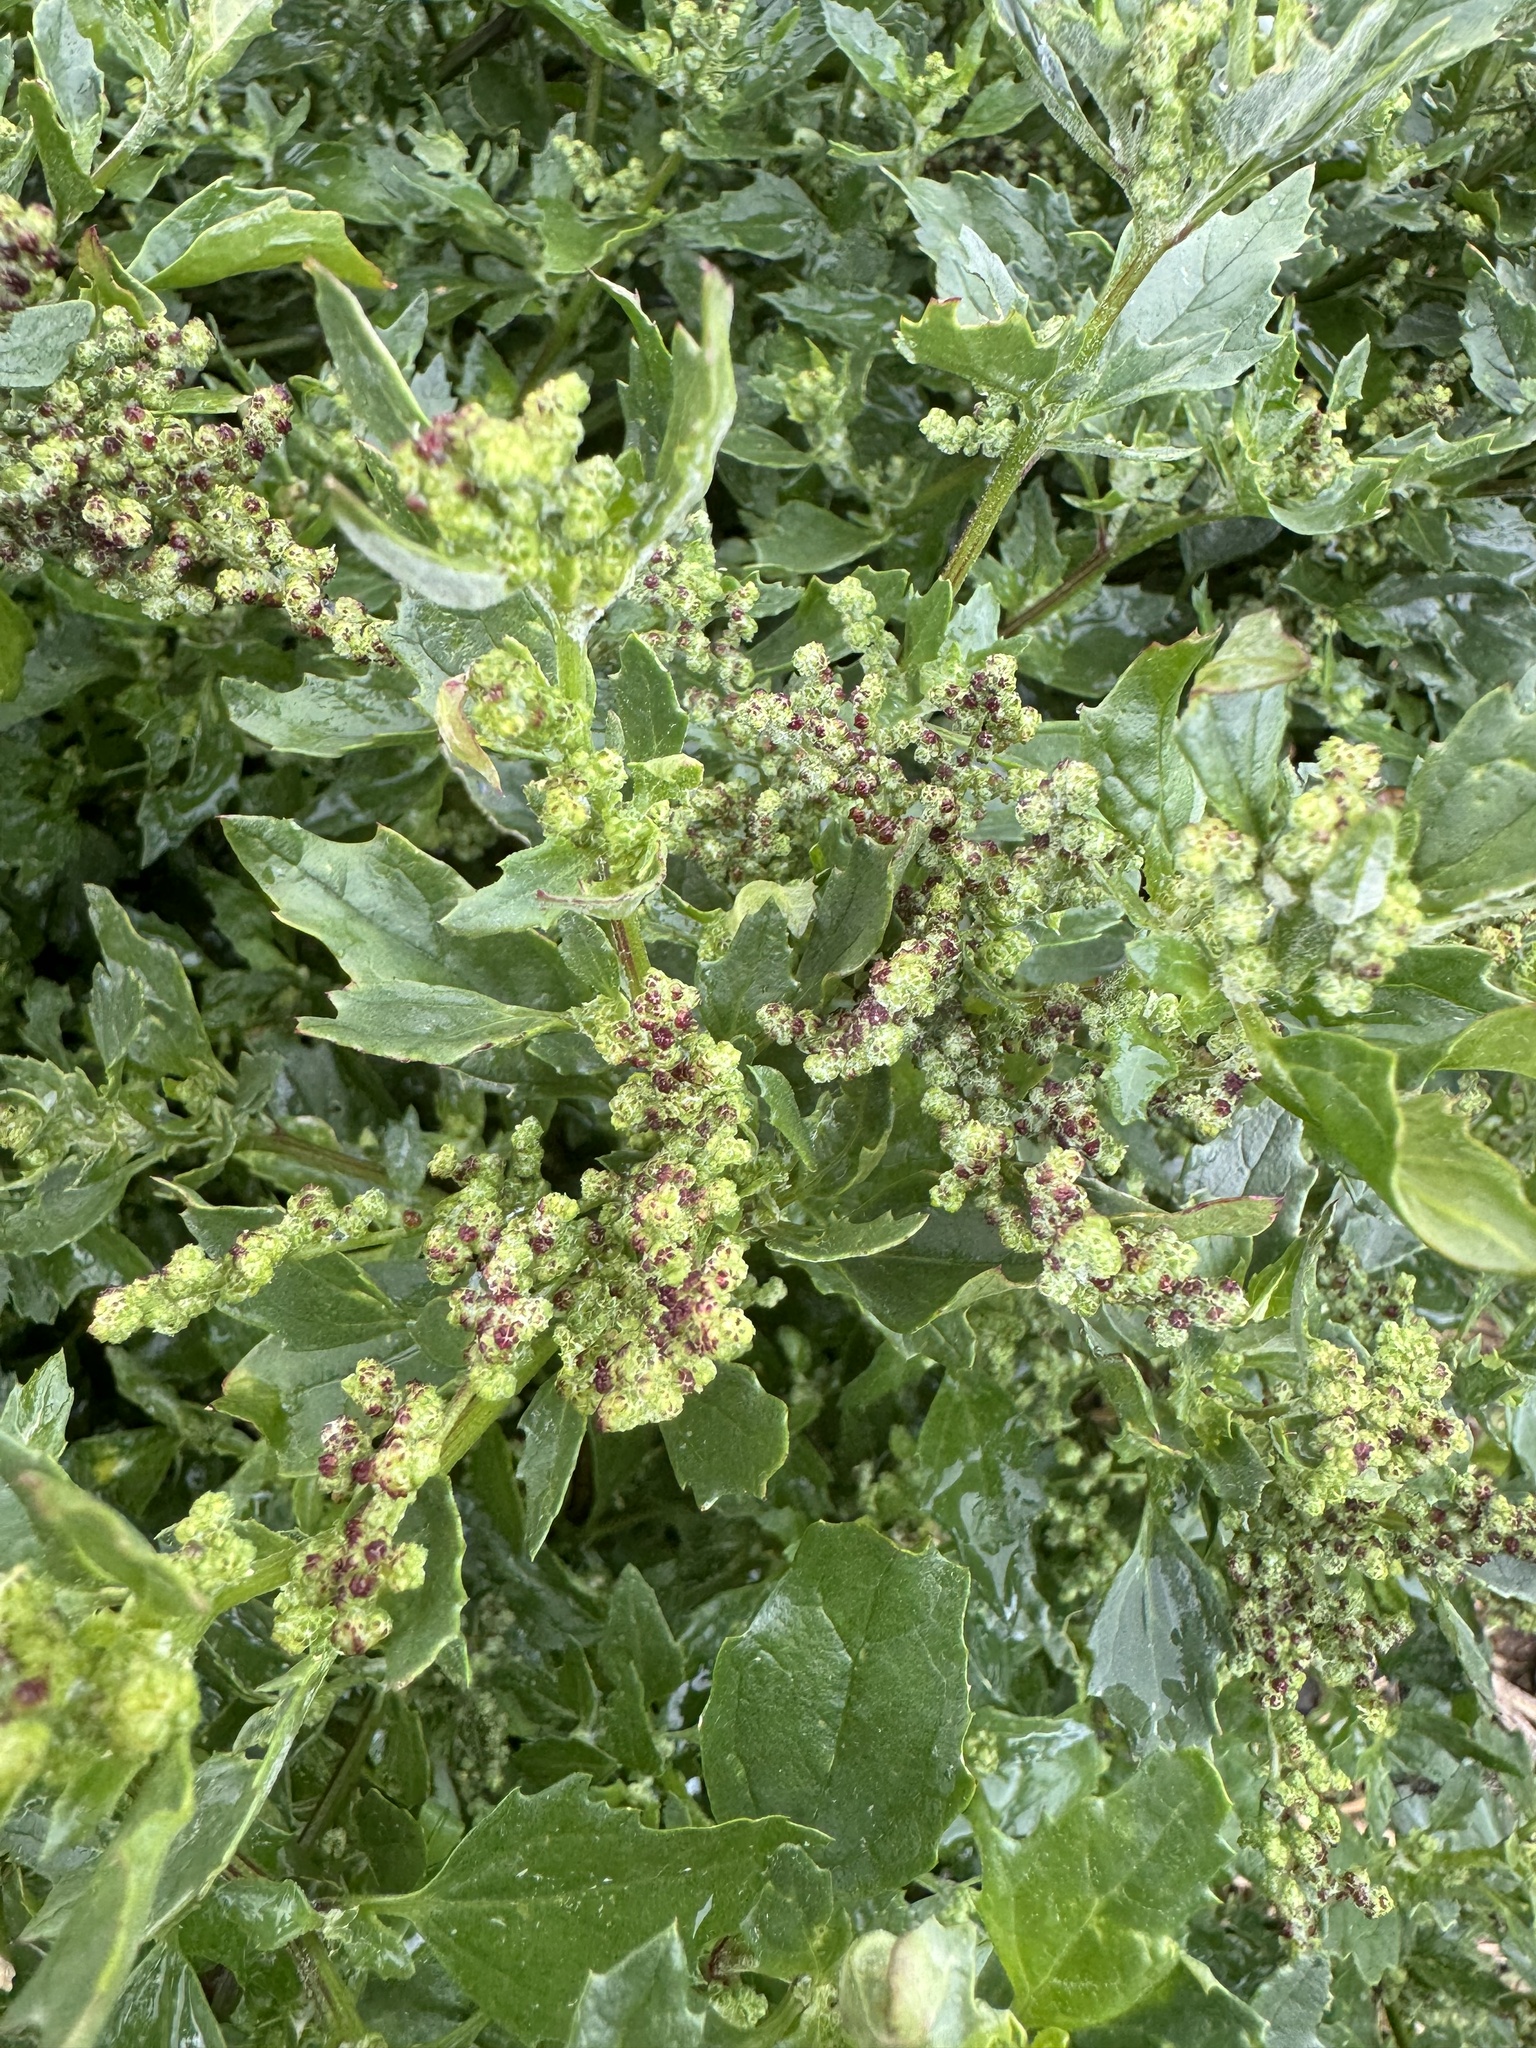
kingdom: Plantae
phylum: Tracheophyta
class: Magnoliopsida
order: Caryophyllales
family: Amaranthaceae
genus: Chenopodiastrum
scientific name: Chenopodiastrum murale
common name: Sowbane
